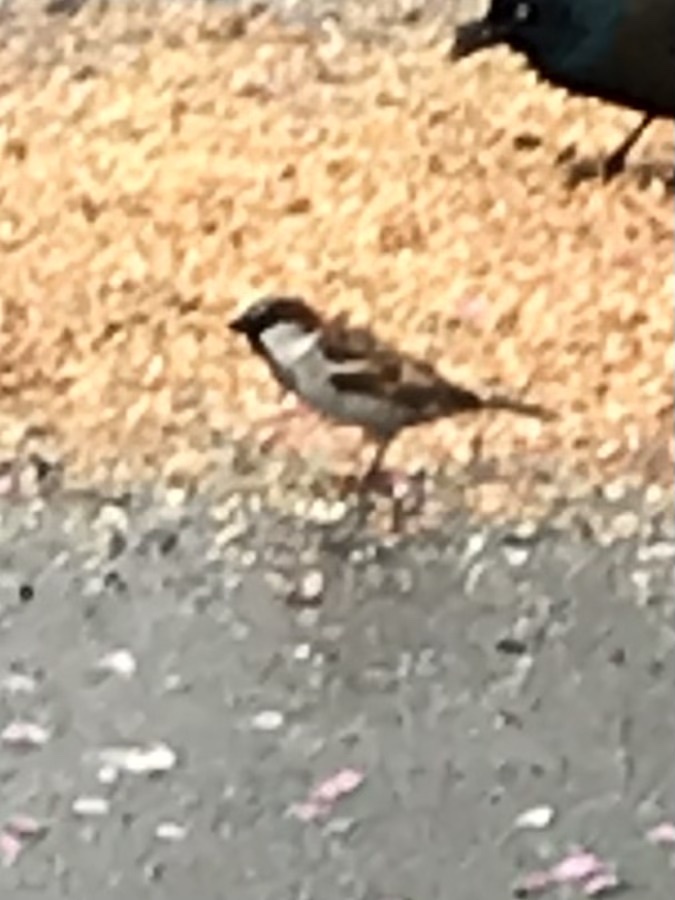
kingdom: Animalia
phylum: Chordata
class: Aves
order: Passeriformes
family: Passeridae
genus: Passer
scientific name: Passer domesticus
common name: House sparrow
